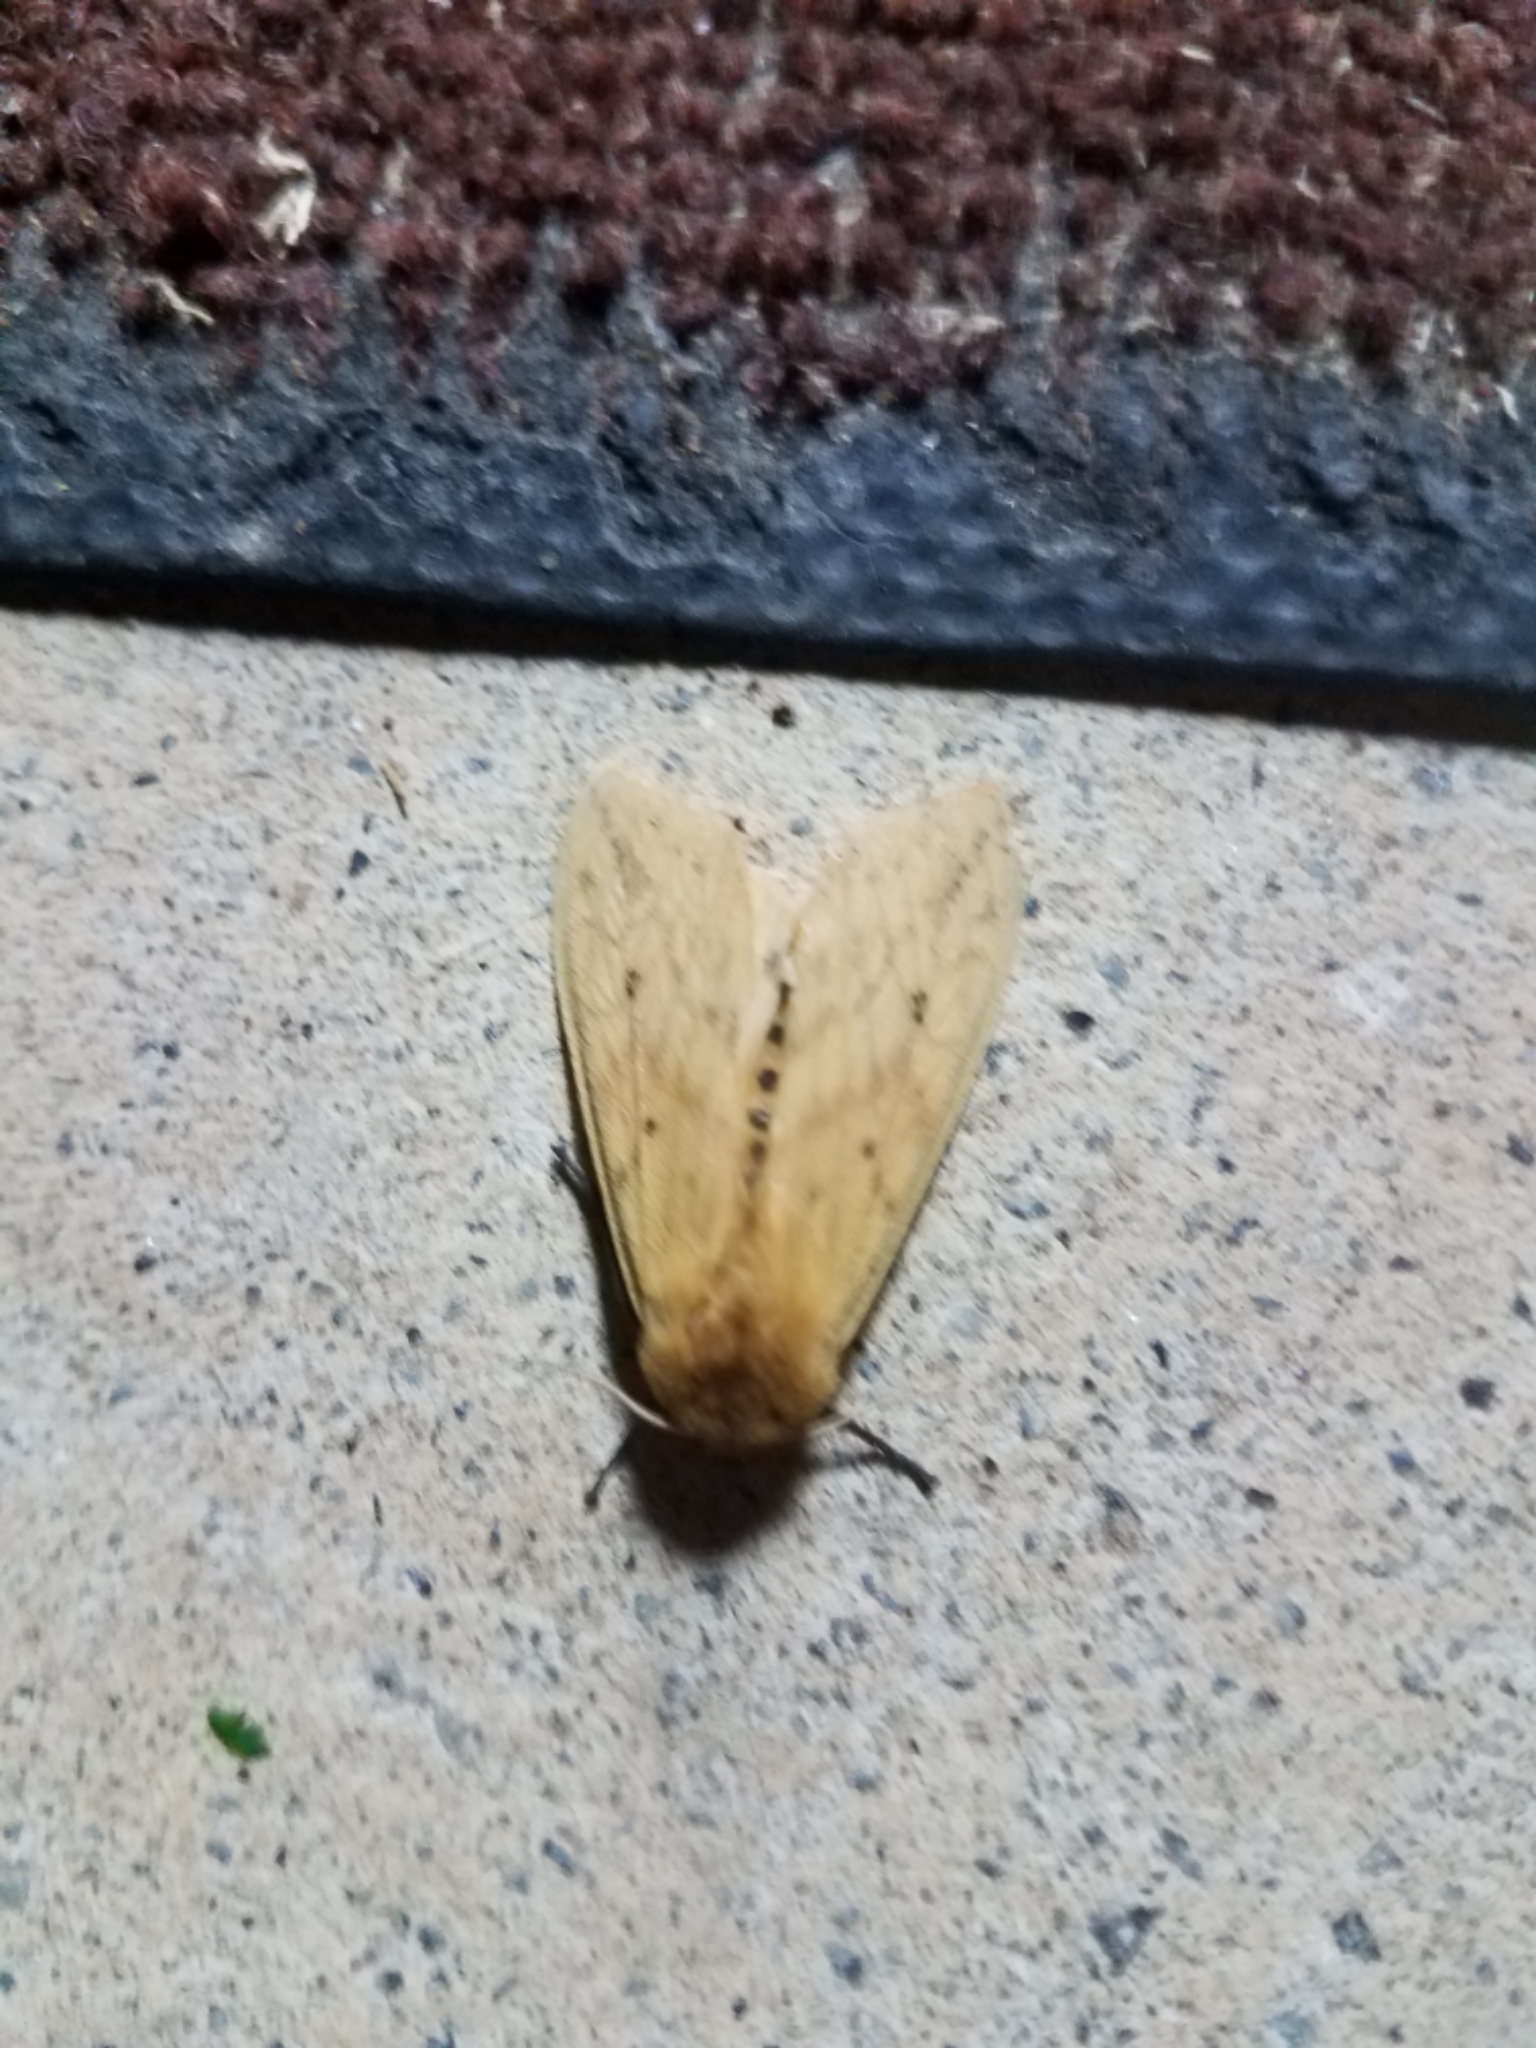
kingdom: Animalia
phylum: Arthropoda
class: Insecta
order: Lepidoptera
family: Erebidae
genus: Pyrrharctia
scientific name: Pyrrharctia isabella
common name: Isabella tiger moth
